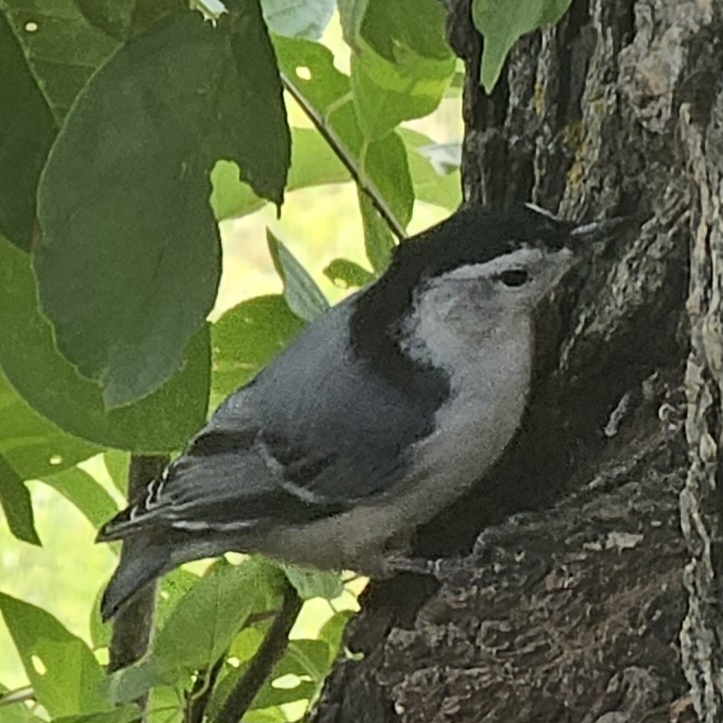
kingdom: Animalia
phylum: Chordata
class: Aves
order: Passeriformes
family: Sittidae
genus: Sitta
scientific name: Sitta carolinensis
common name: White-breasted nuthatch
